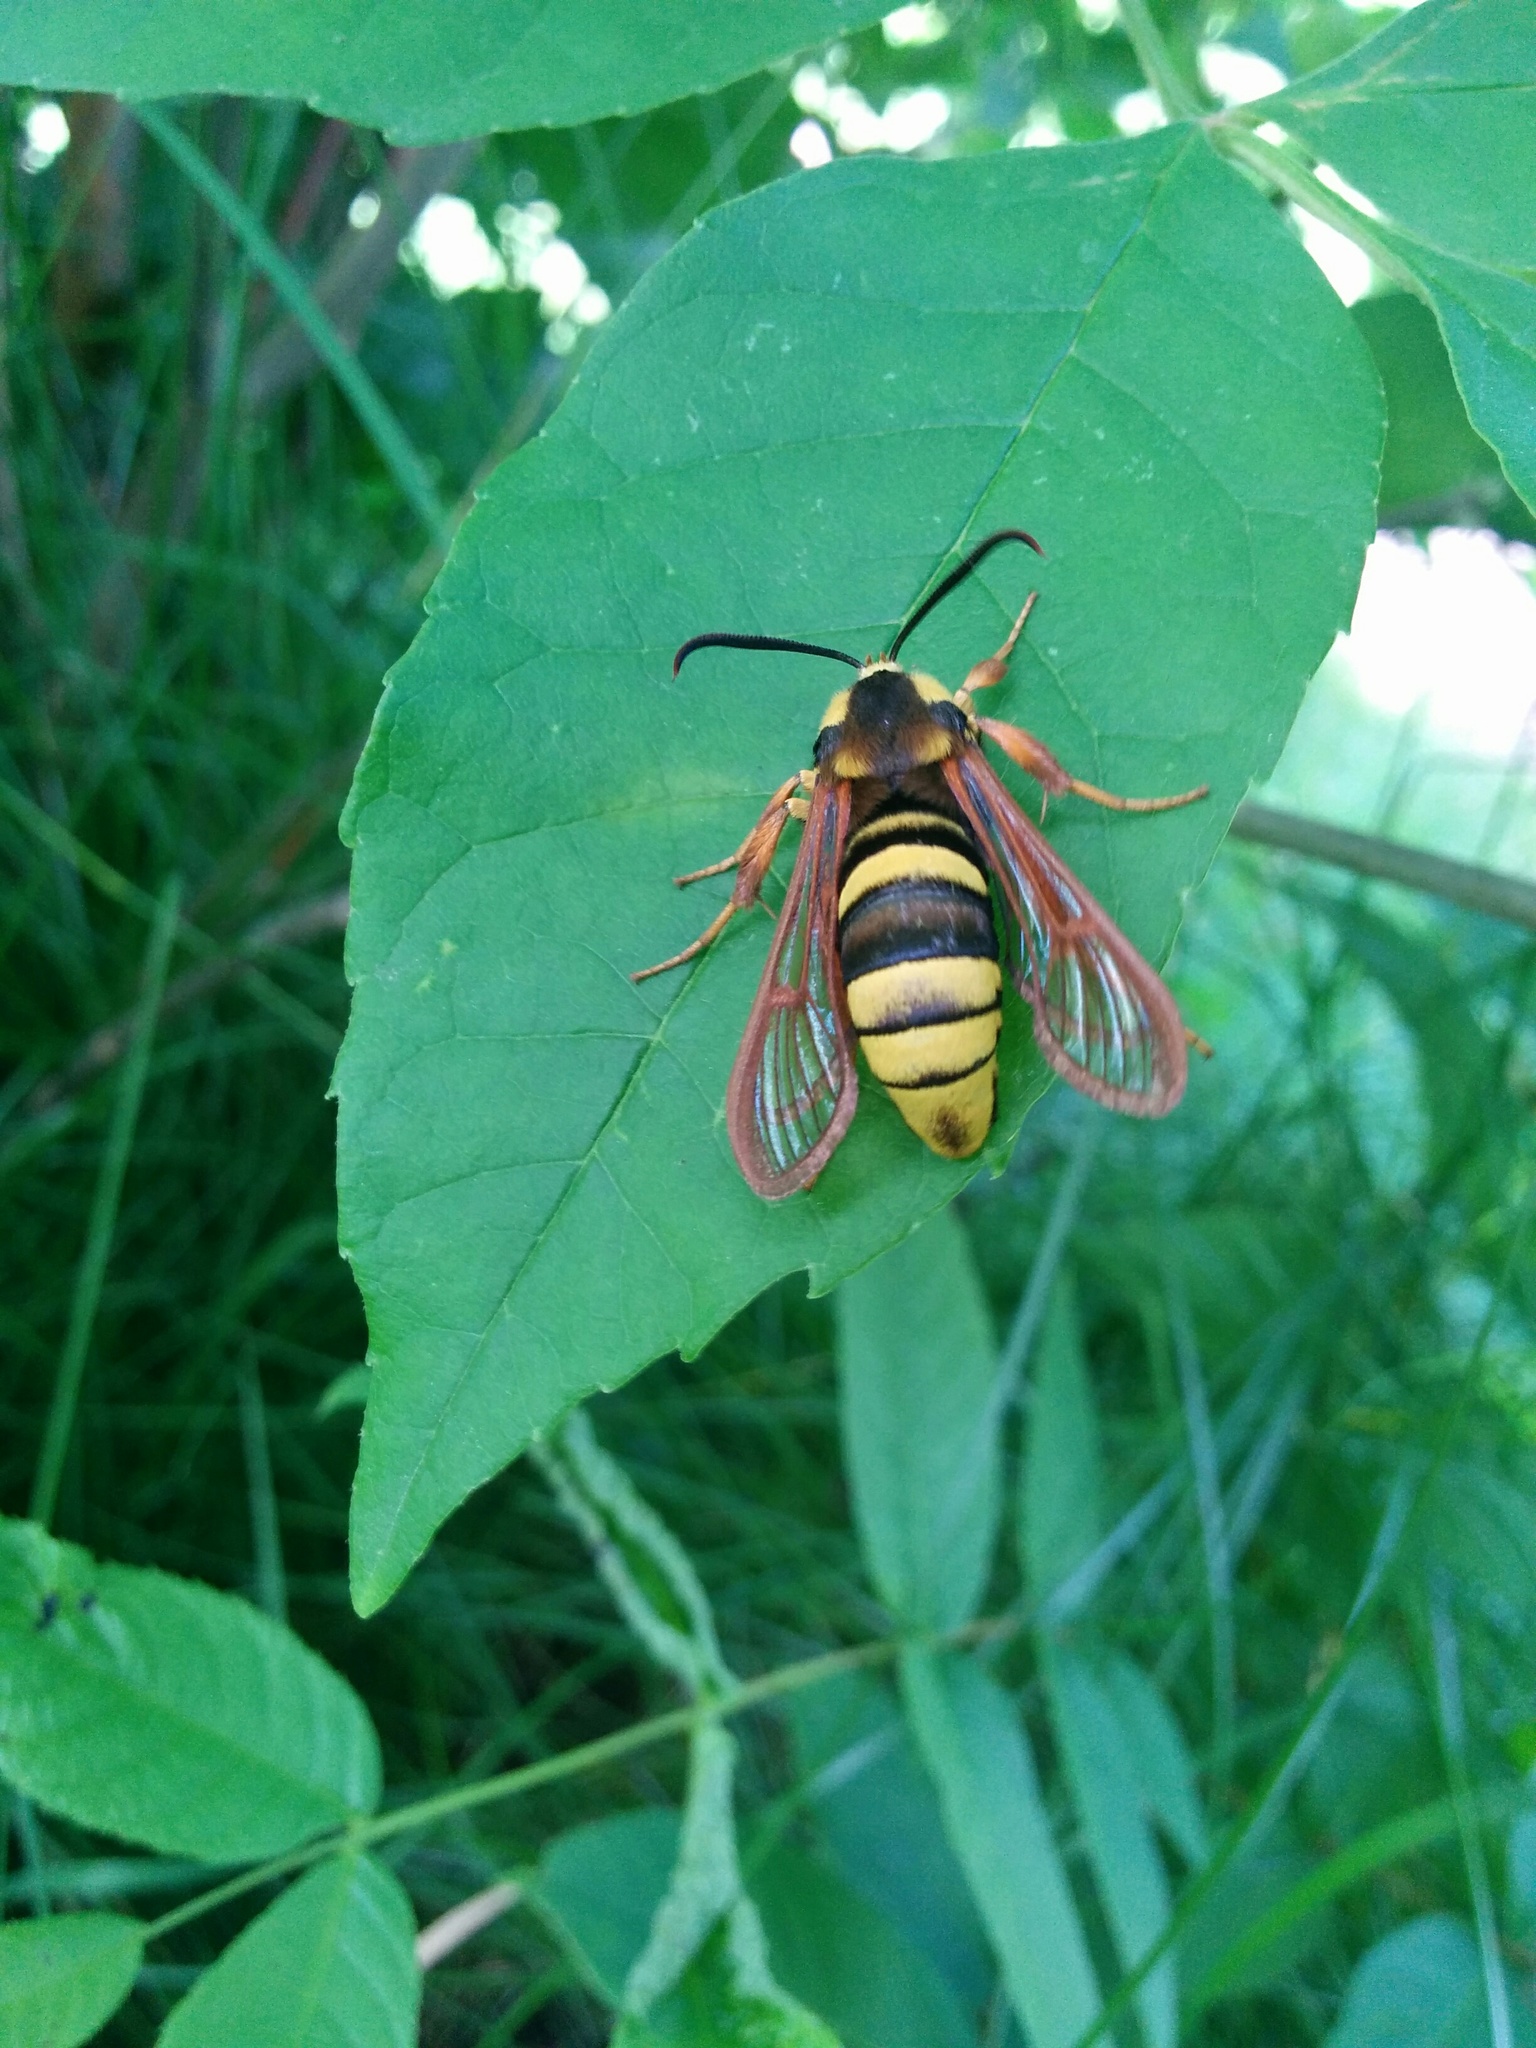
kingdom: Animalia
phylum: Arthropoda
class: Insecta
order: Lepidoptera
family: Sesiidae
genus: Sesia
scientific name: Sesia apiformis
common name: Hornet moth
